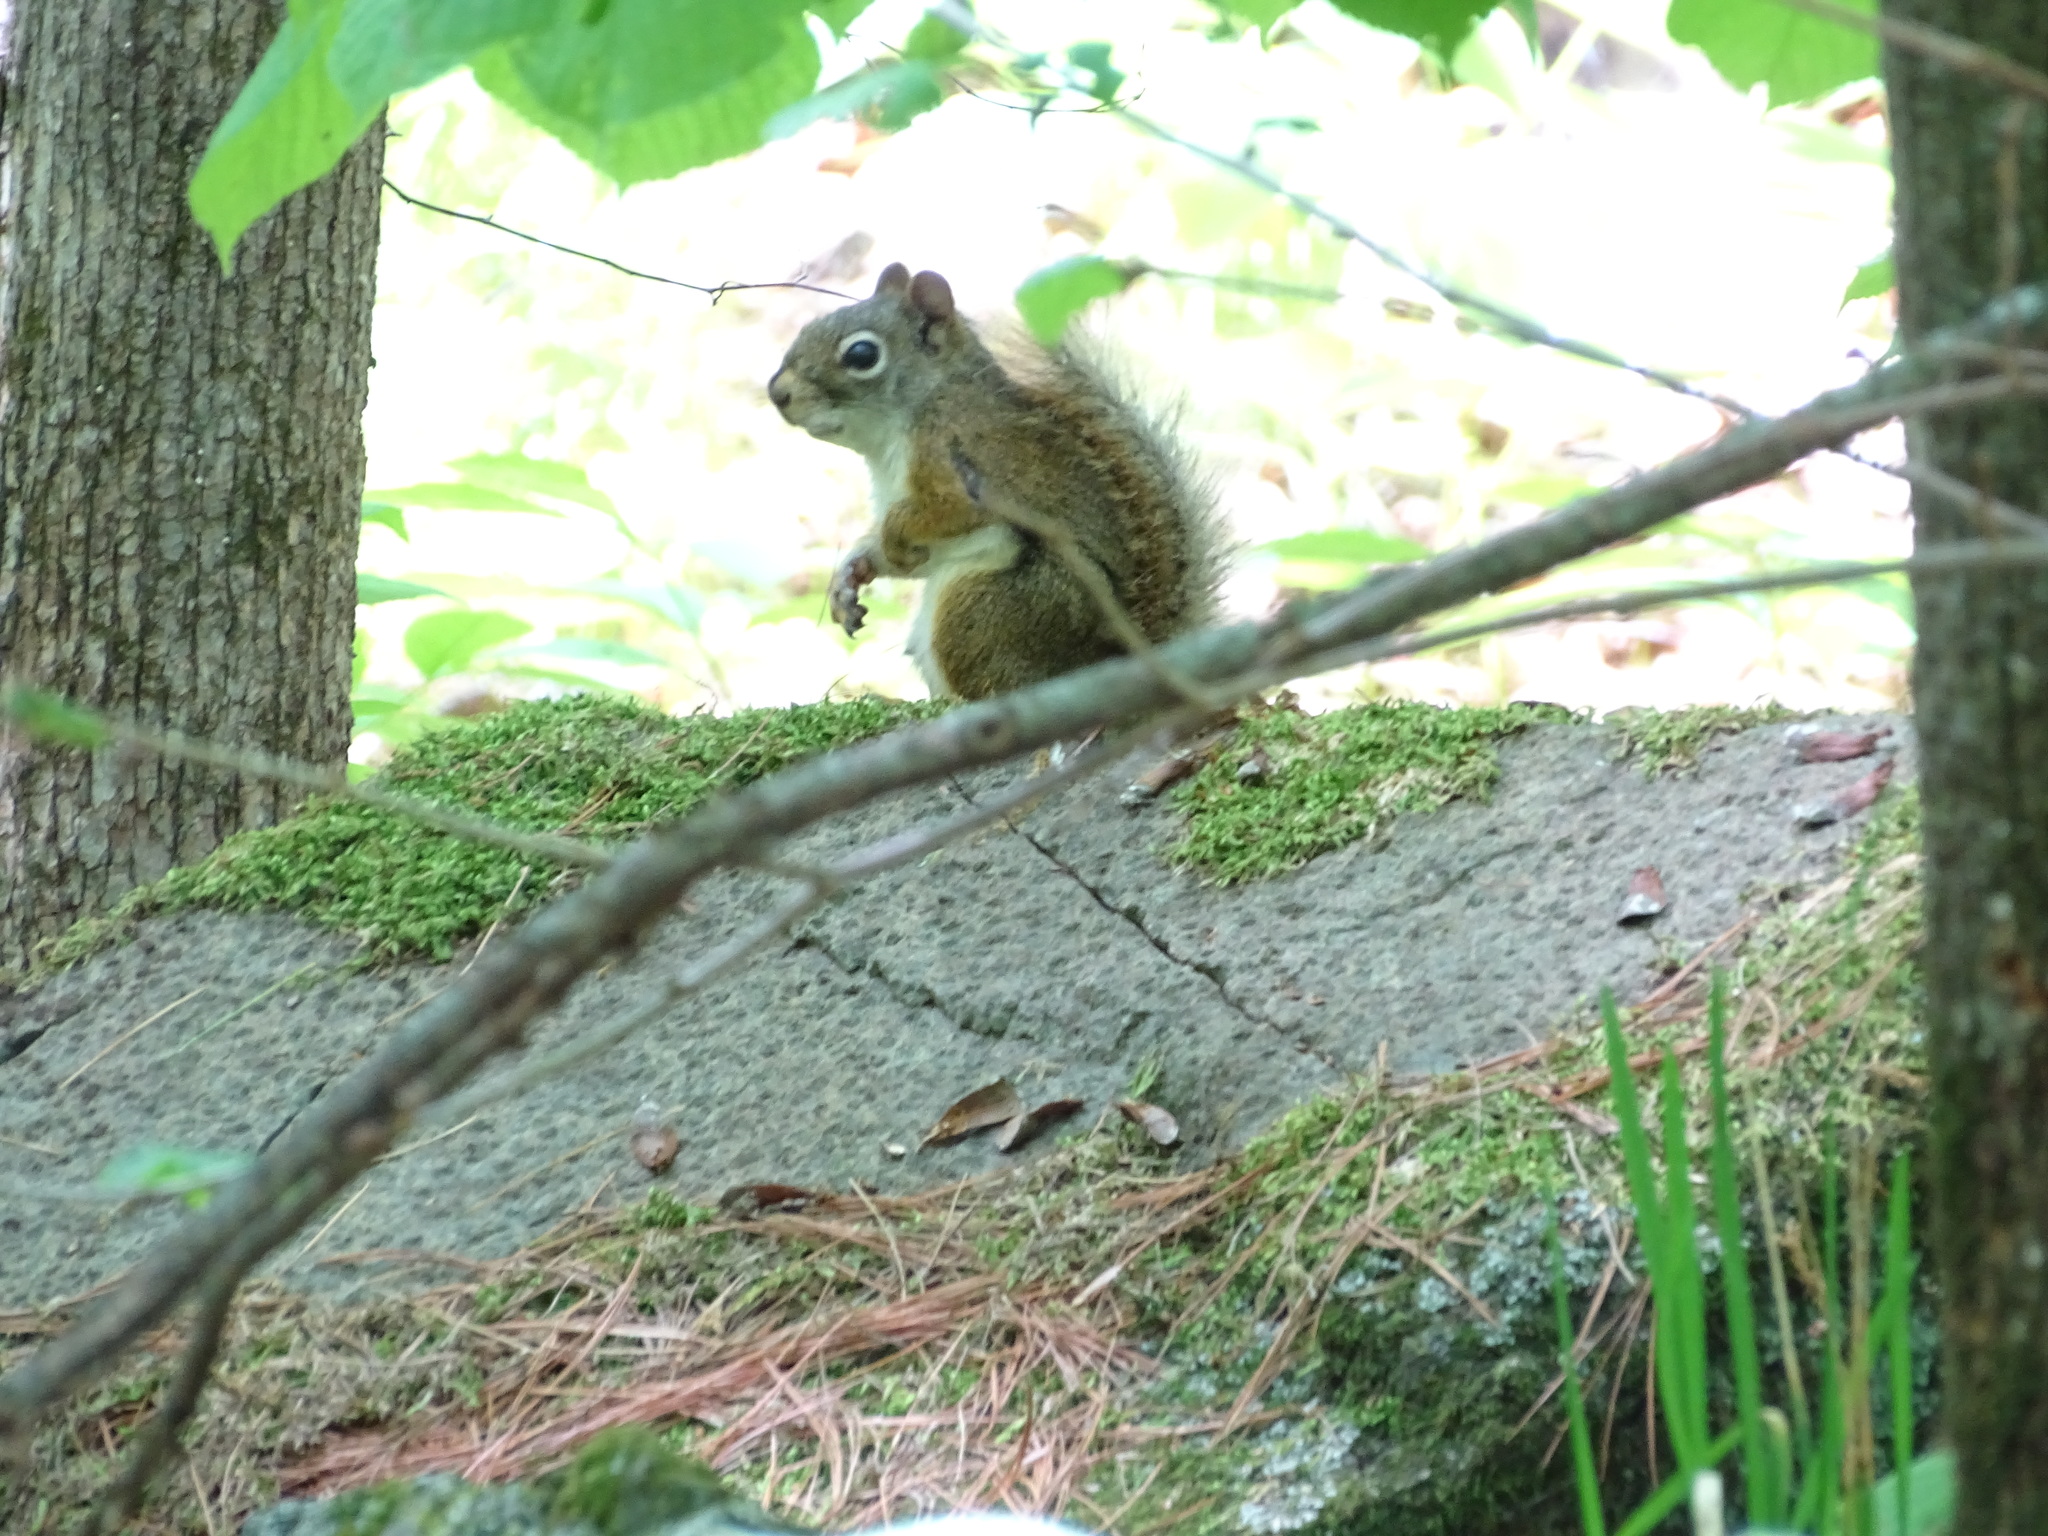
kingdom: Animalia
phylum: Chordata
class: Mammalia
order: Rodentia
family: Sciuridae
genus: Tamiasciurus
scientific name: Tamiasciurus hudsonicus
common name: Red squirrel
